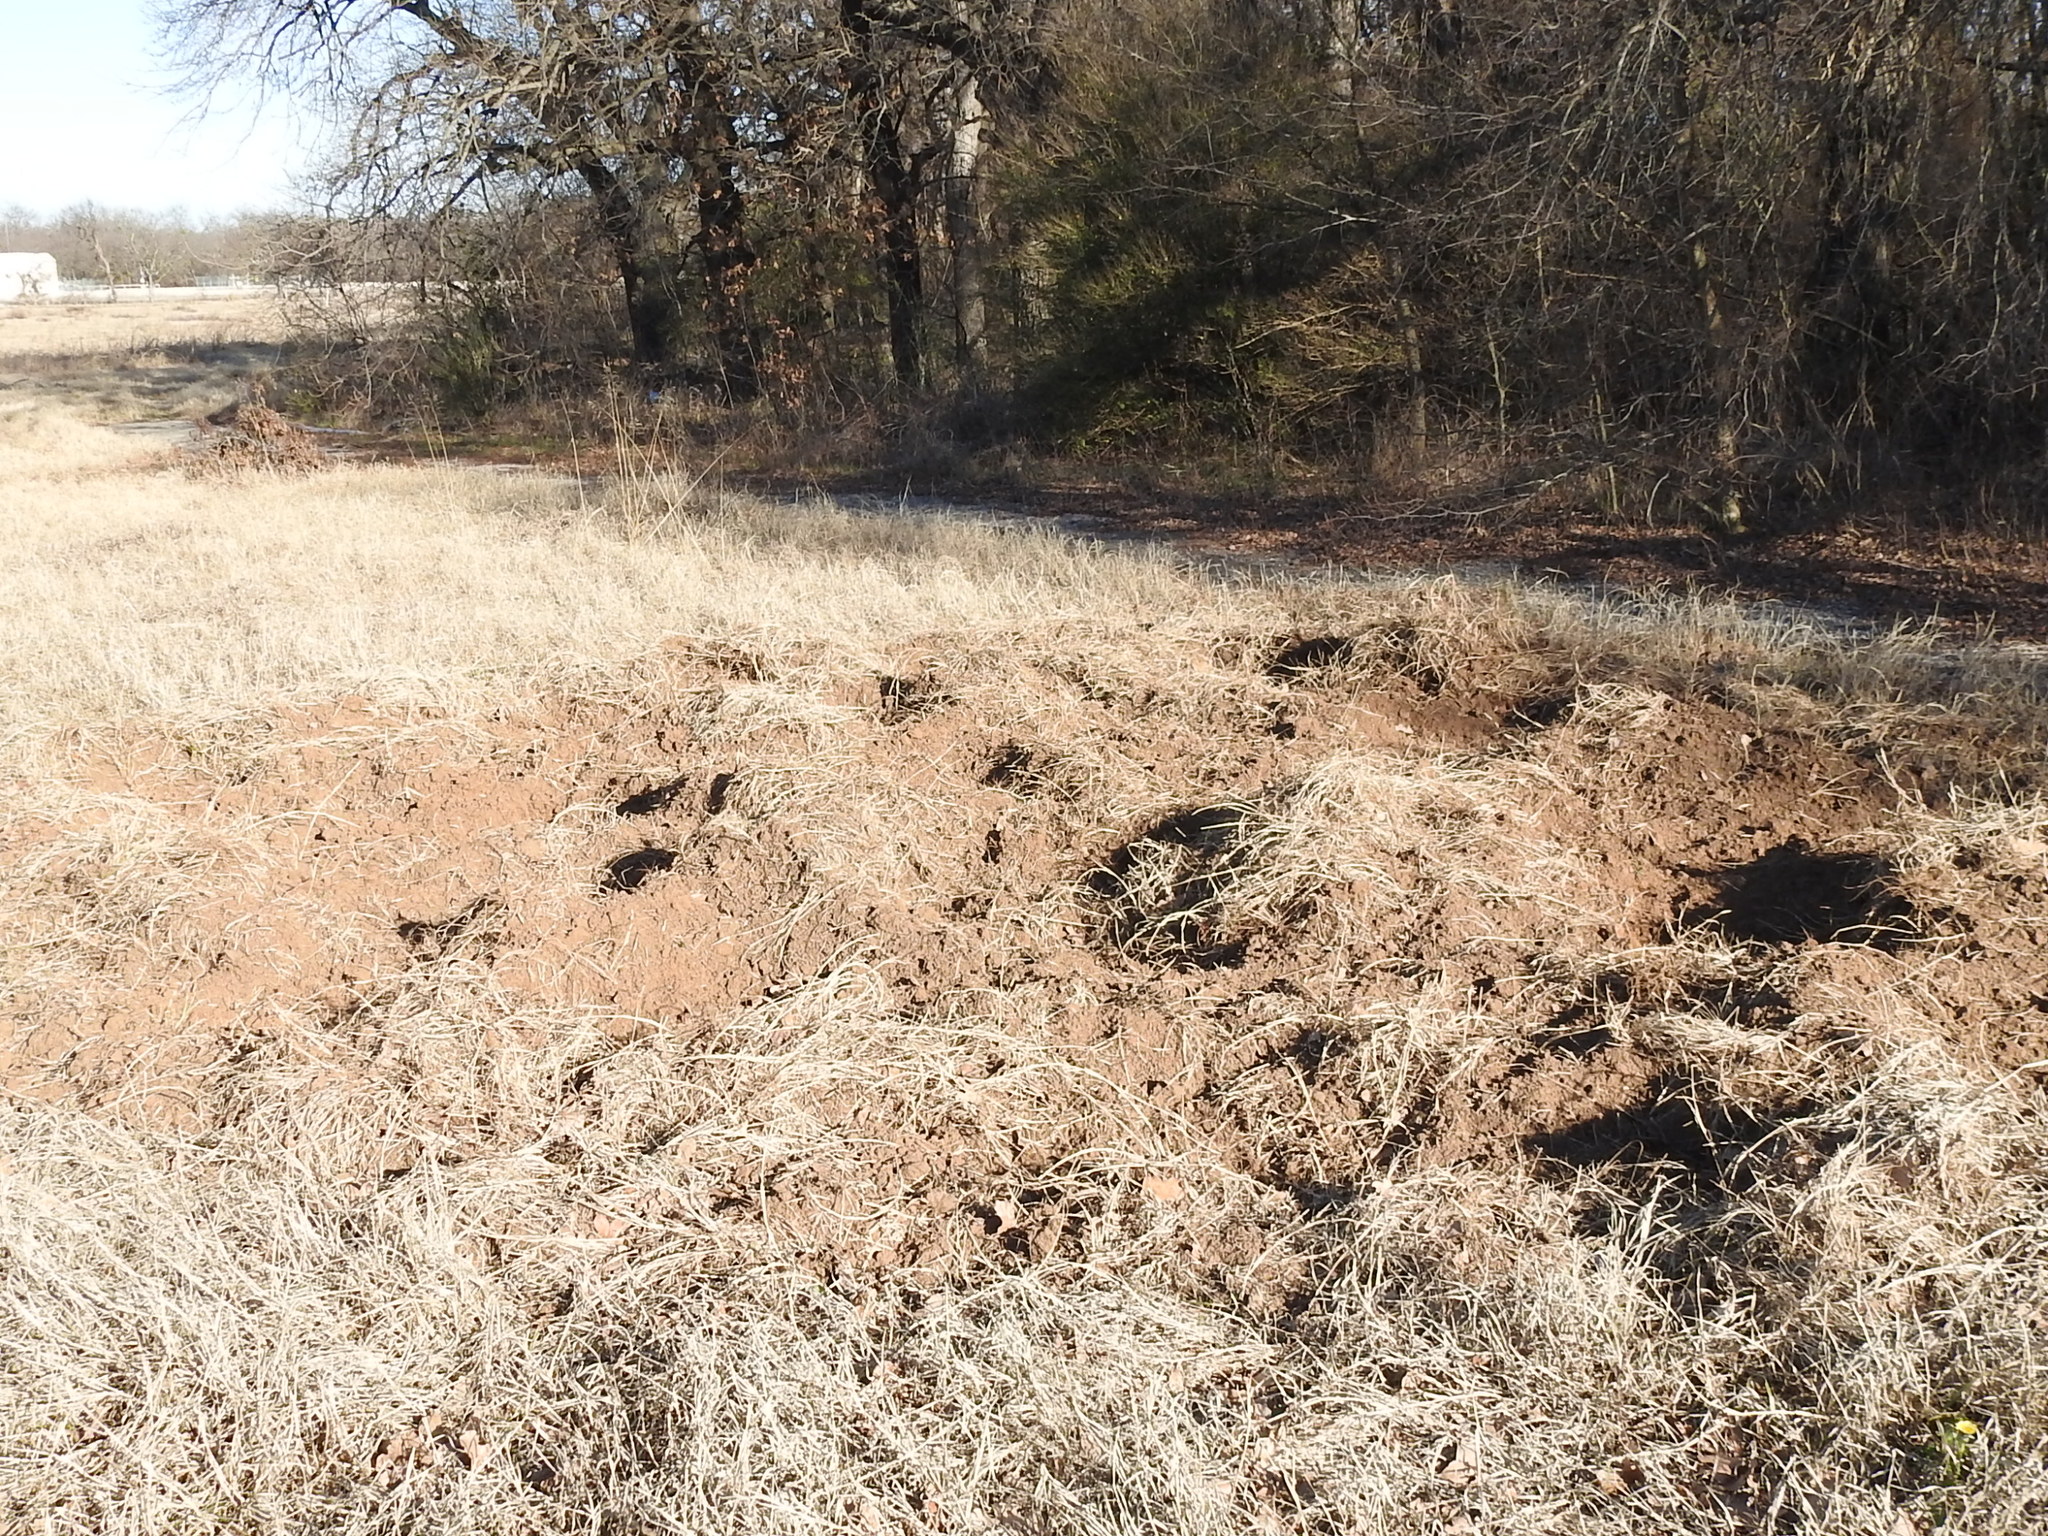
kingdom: Animalia
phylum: Chordata
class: Mammalia
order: Artiodactyla
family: Suidae
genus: Sus
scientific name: Sus scrofa
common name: Wild boar
